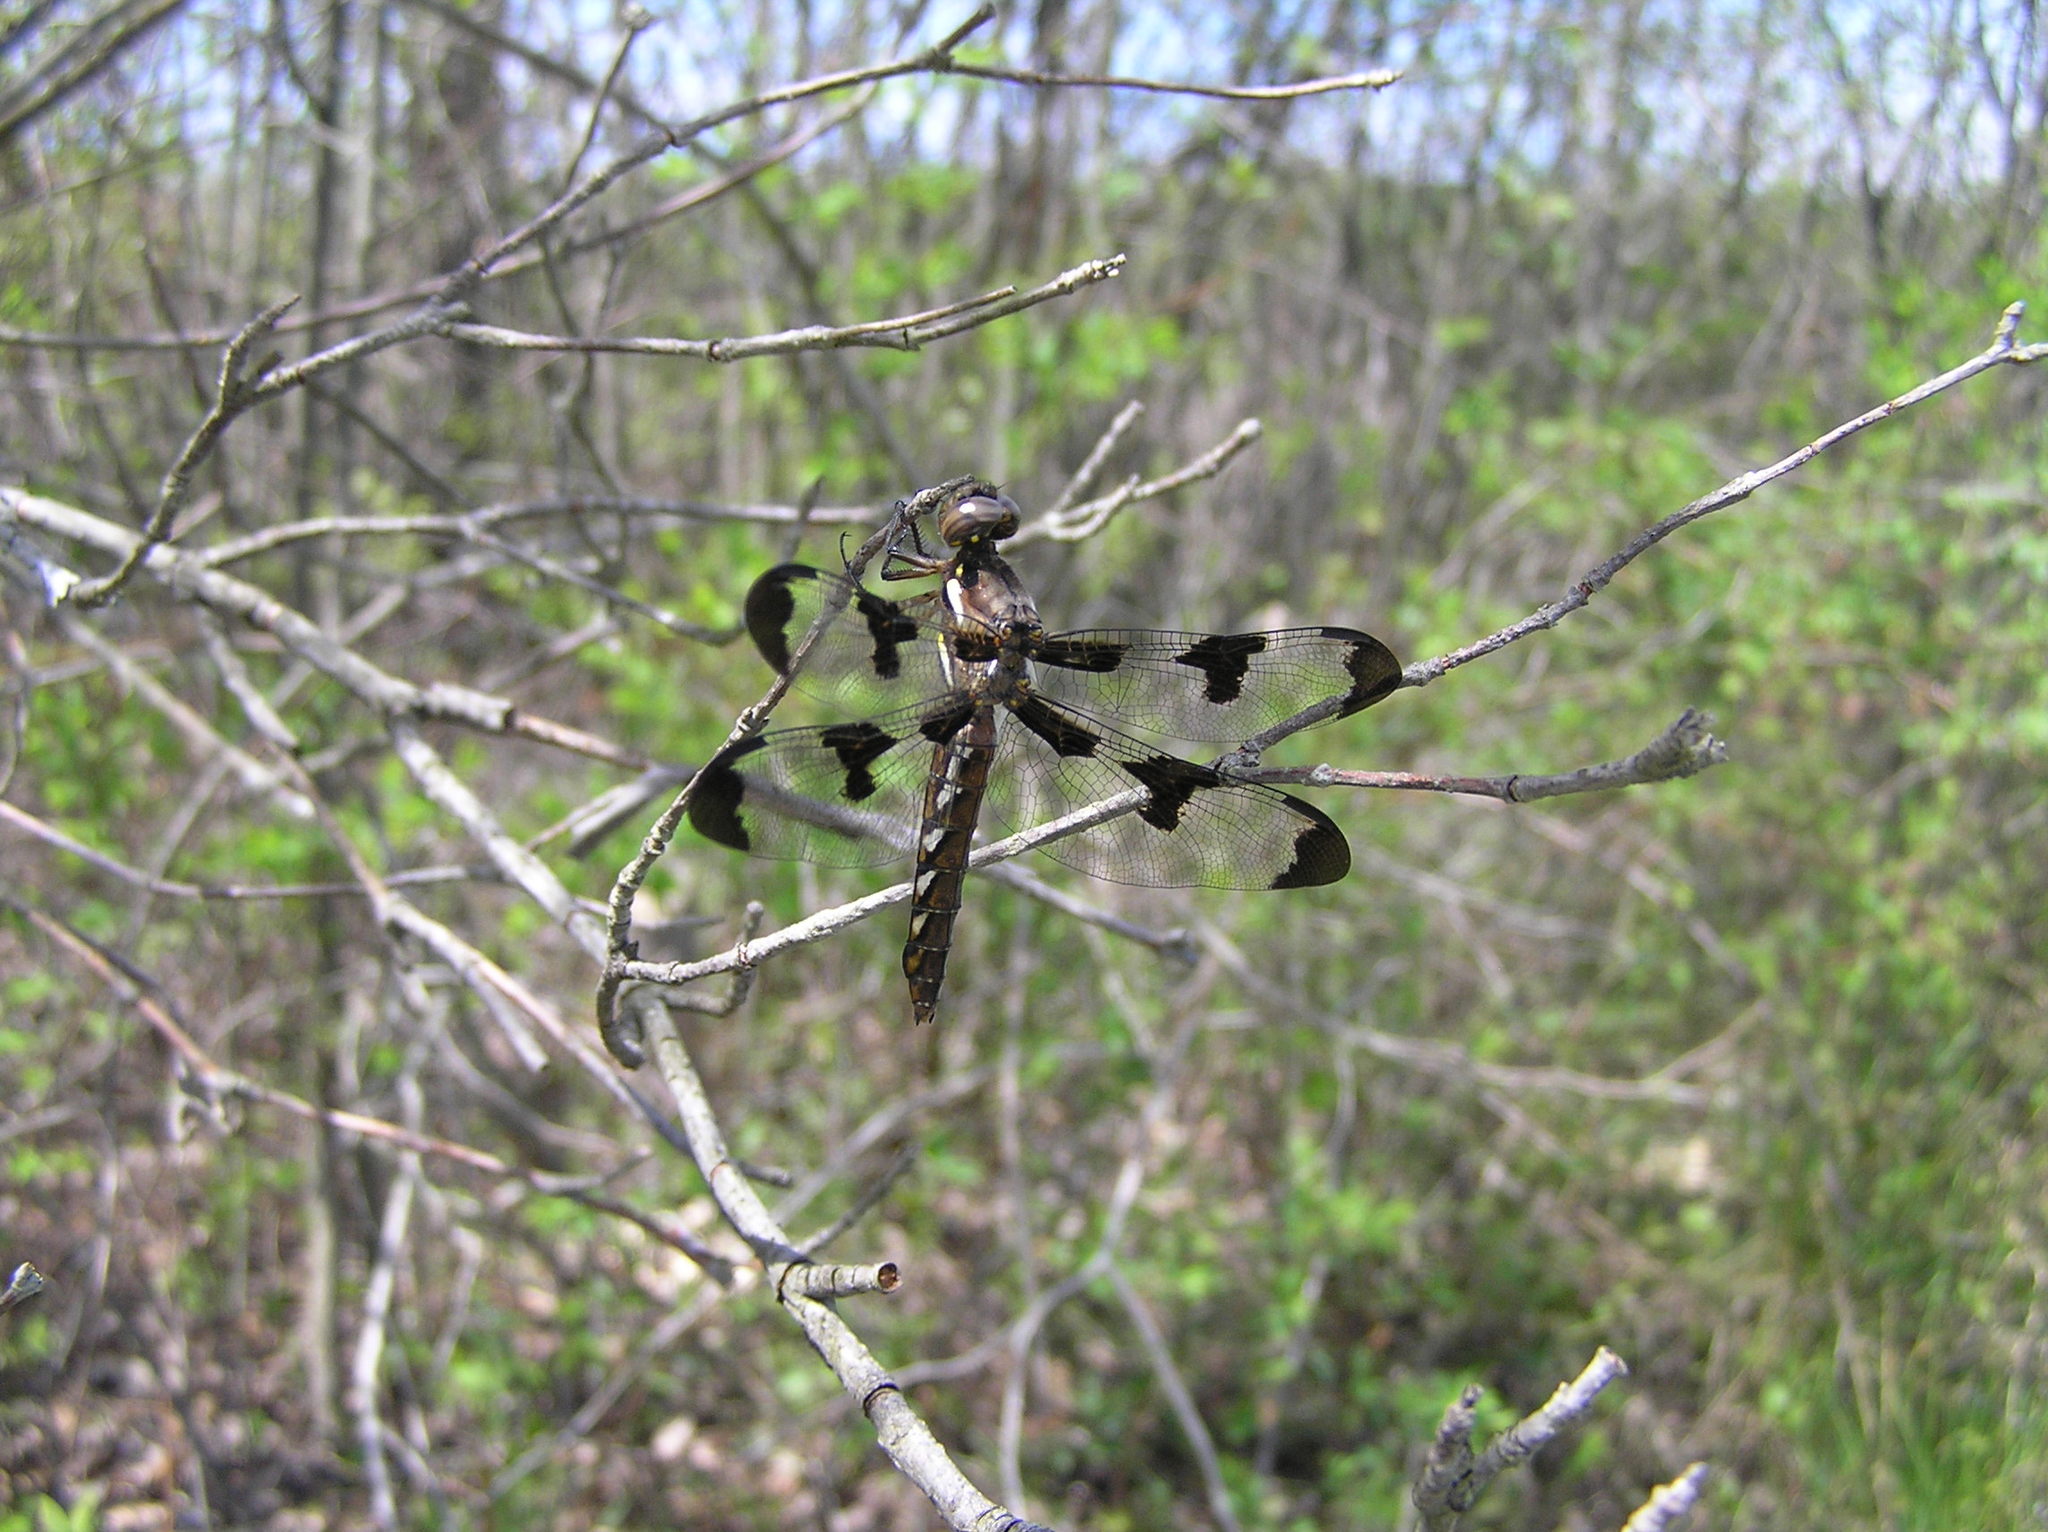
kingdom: Animalia
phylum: Arthropoda
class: Insecta
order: Odonata
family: Libellulidae
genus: Plathemis
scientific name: Plathemis lydia
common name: Common whitetail
